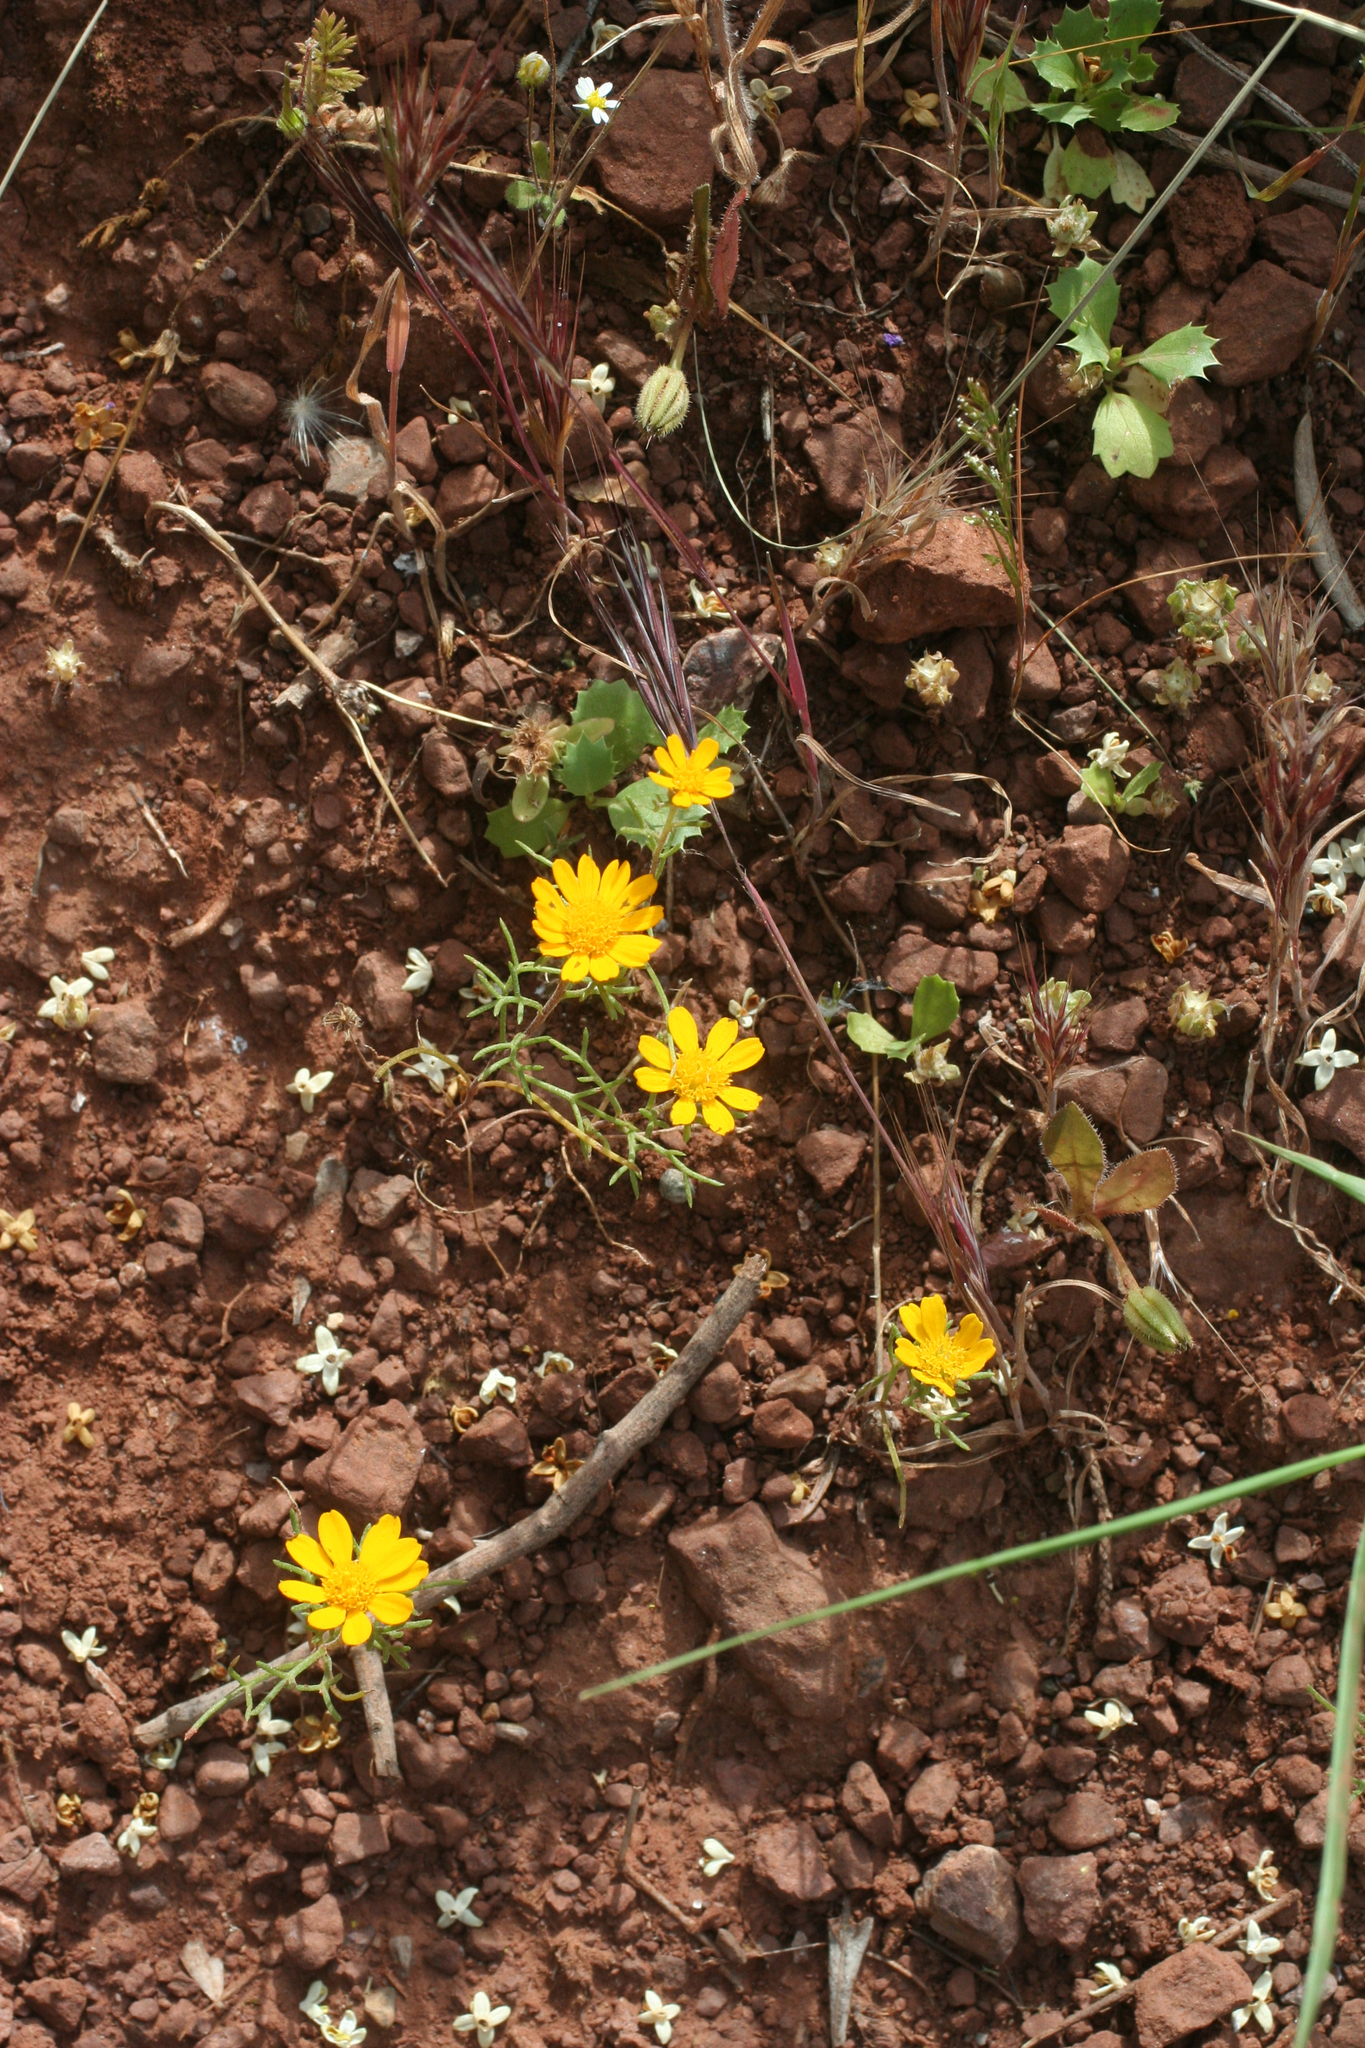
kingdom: Plantae
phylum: Tracheophyta
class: Magnoliopsida
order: Asterales
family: Asteraceae
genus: Cladanthus
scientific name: Cladanthus arabicus
